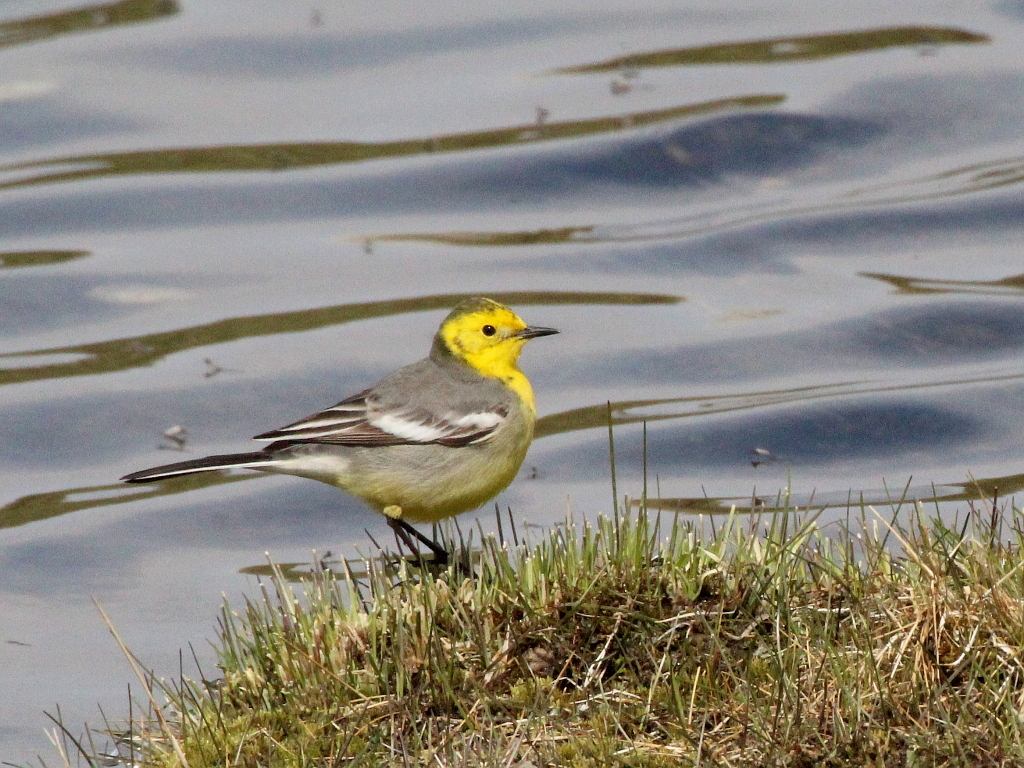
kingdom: Animalia
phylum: Chordata
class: Aves
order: Passeriformes
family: Motacillidae
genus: Motacilla
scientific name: Motacilla citreola
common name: Citrine wagtail
